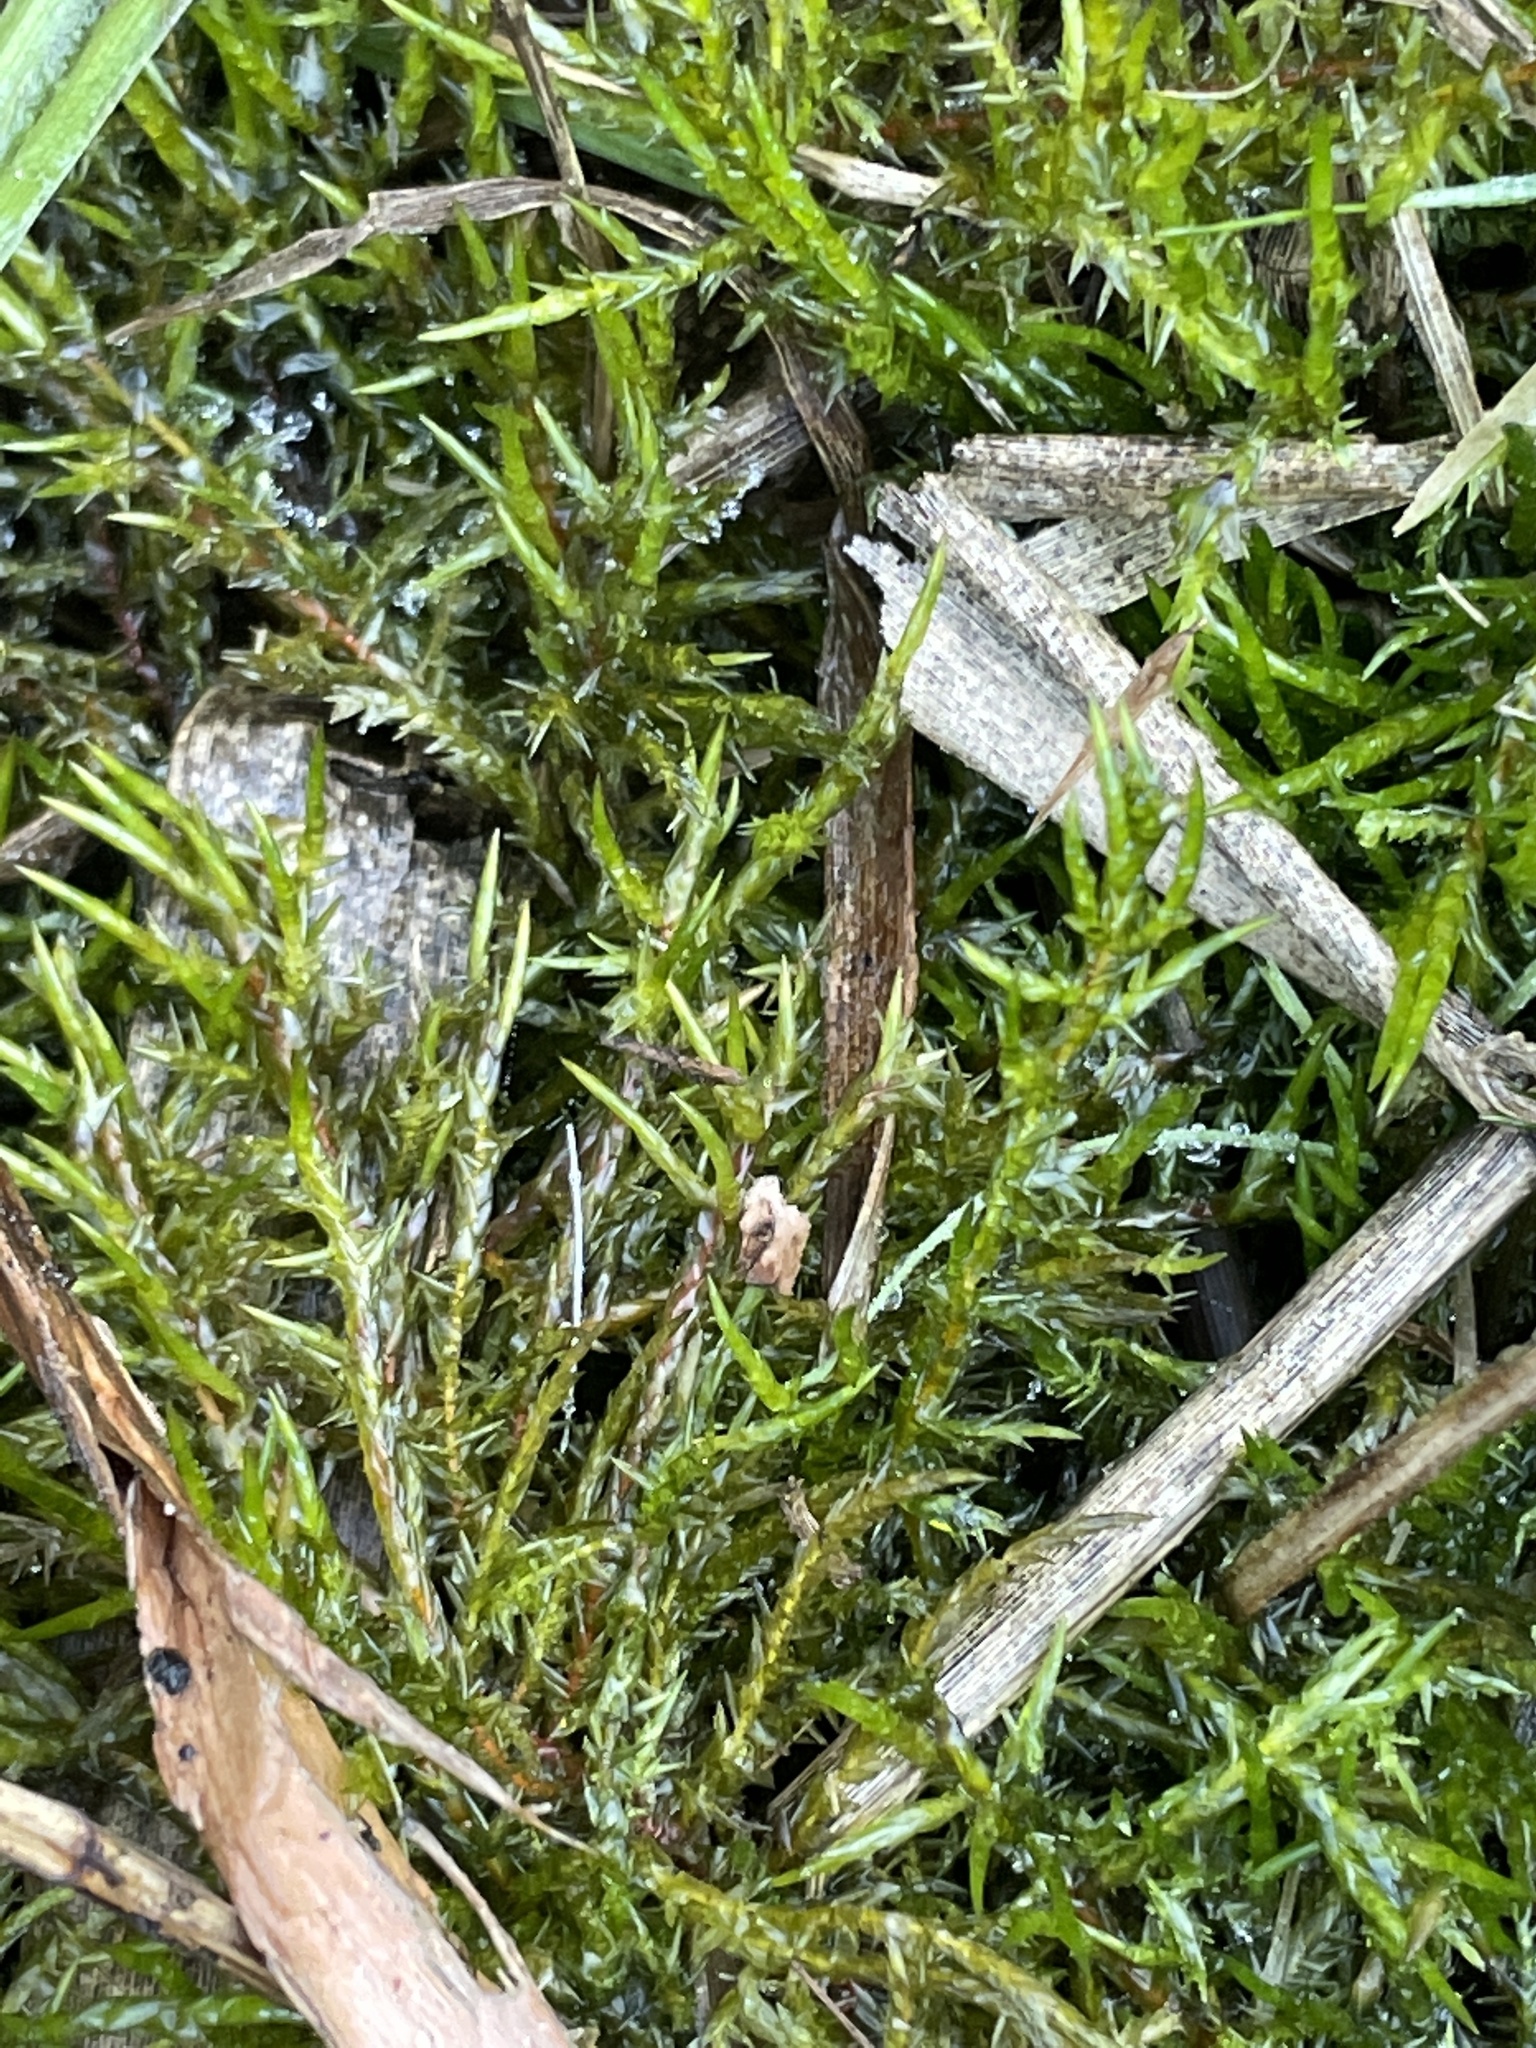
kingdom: Plantae
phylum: Bryophyta
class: Bryopsida
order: Hypnales
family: Pylaisiaceae
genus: Calliergonella
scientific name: Calliergonella cuspidata
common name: Common large wetland moss
